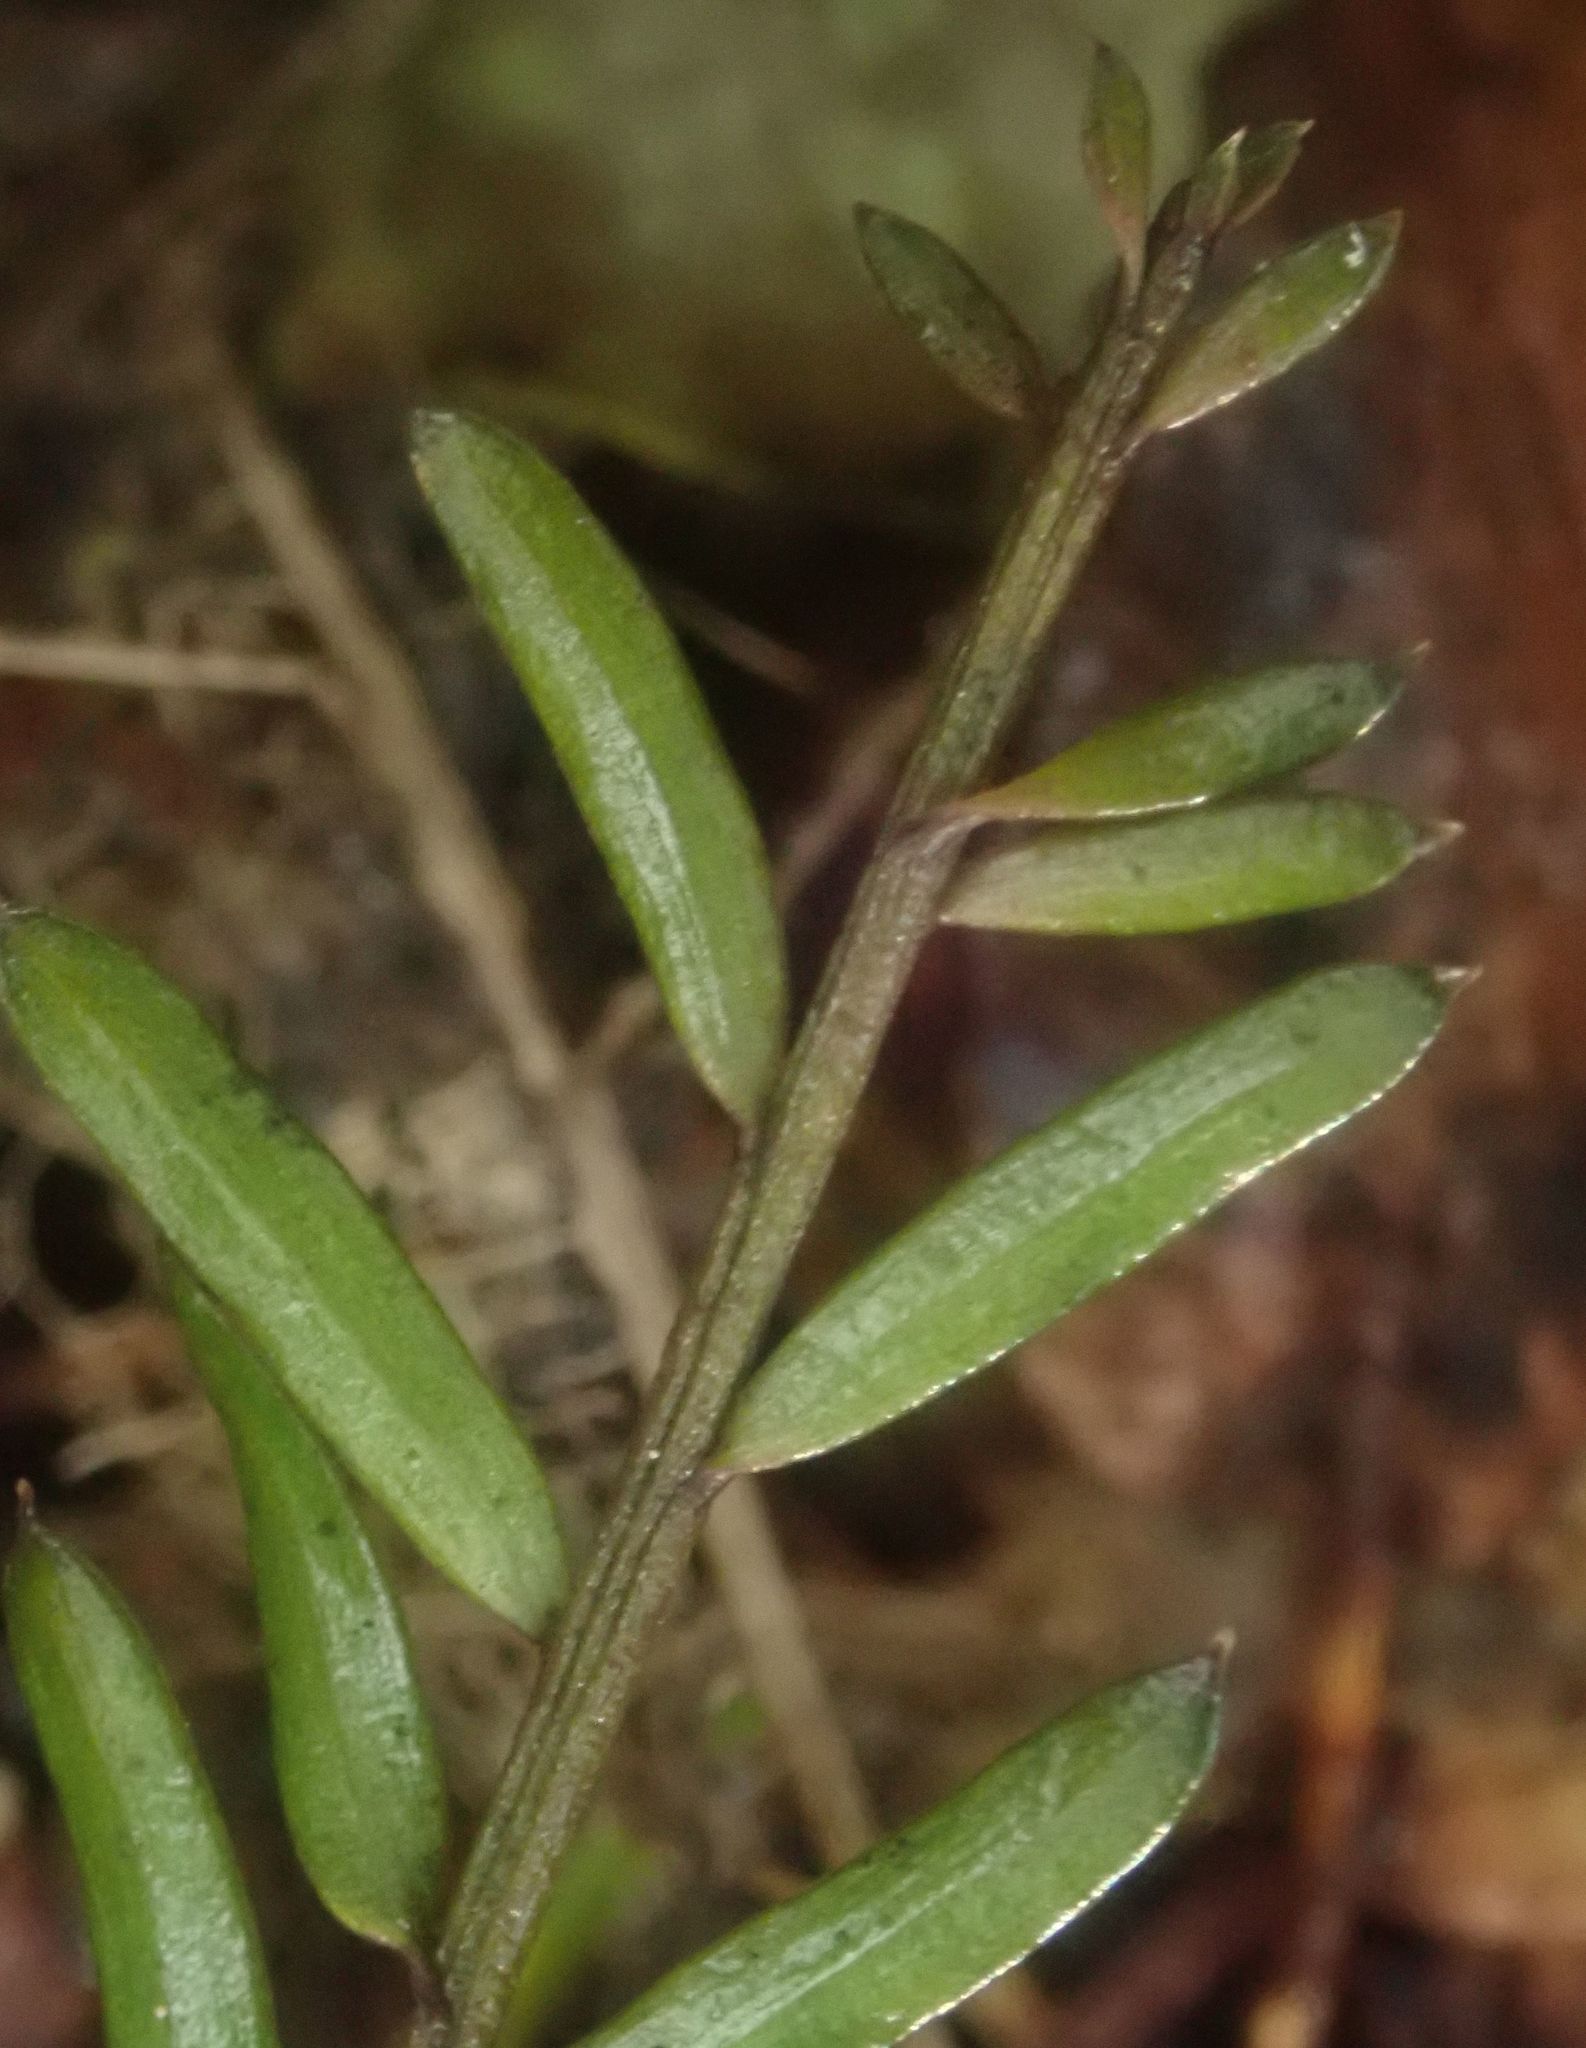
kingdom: Plantae
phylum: Tracheophyta
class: Pinopsida
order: Pinales
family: Podocarpaceae
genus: Prumnopitys
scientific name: Prumnopitys taxifolia
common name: Matai
